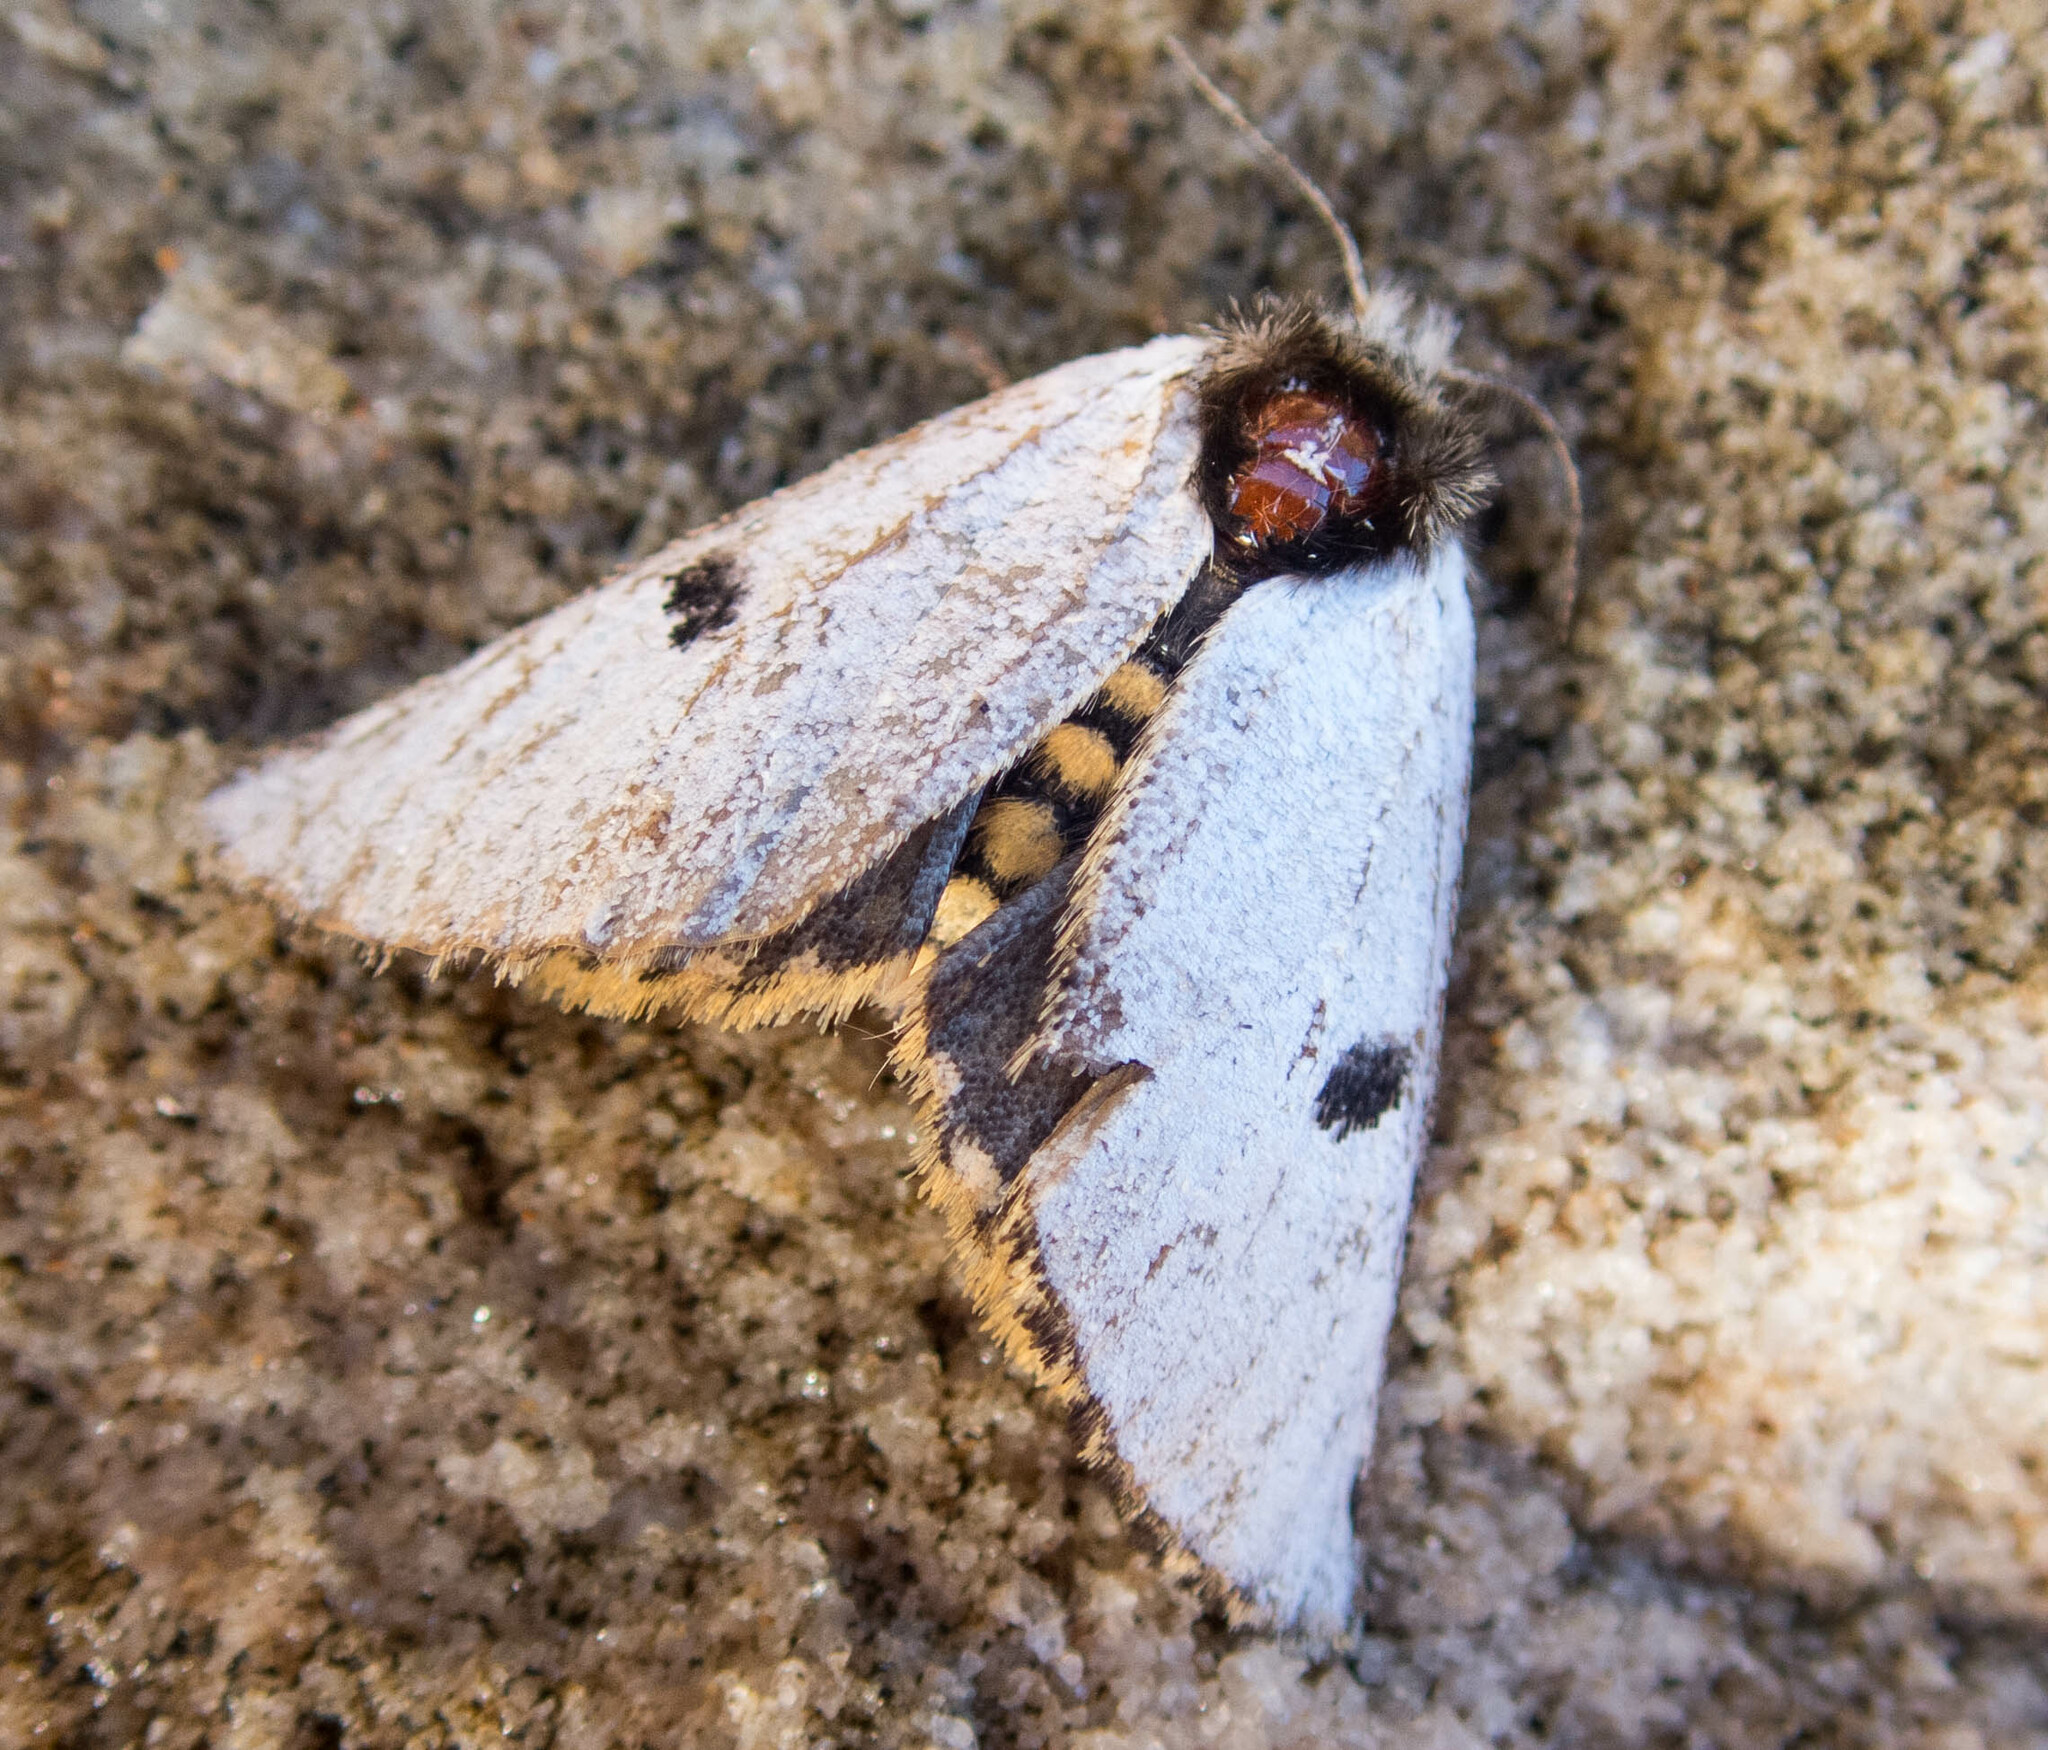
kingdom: Animalia
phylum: Arthropoda
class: Insecta
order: Lepidoptera
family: Notodontidae
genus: Epicoma
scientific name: Epicoma melanospila
